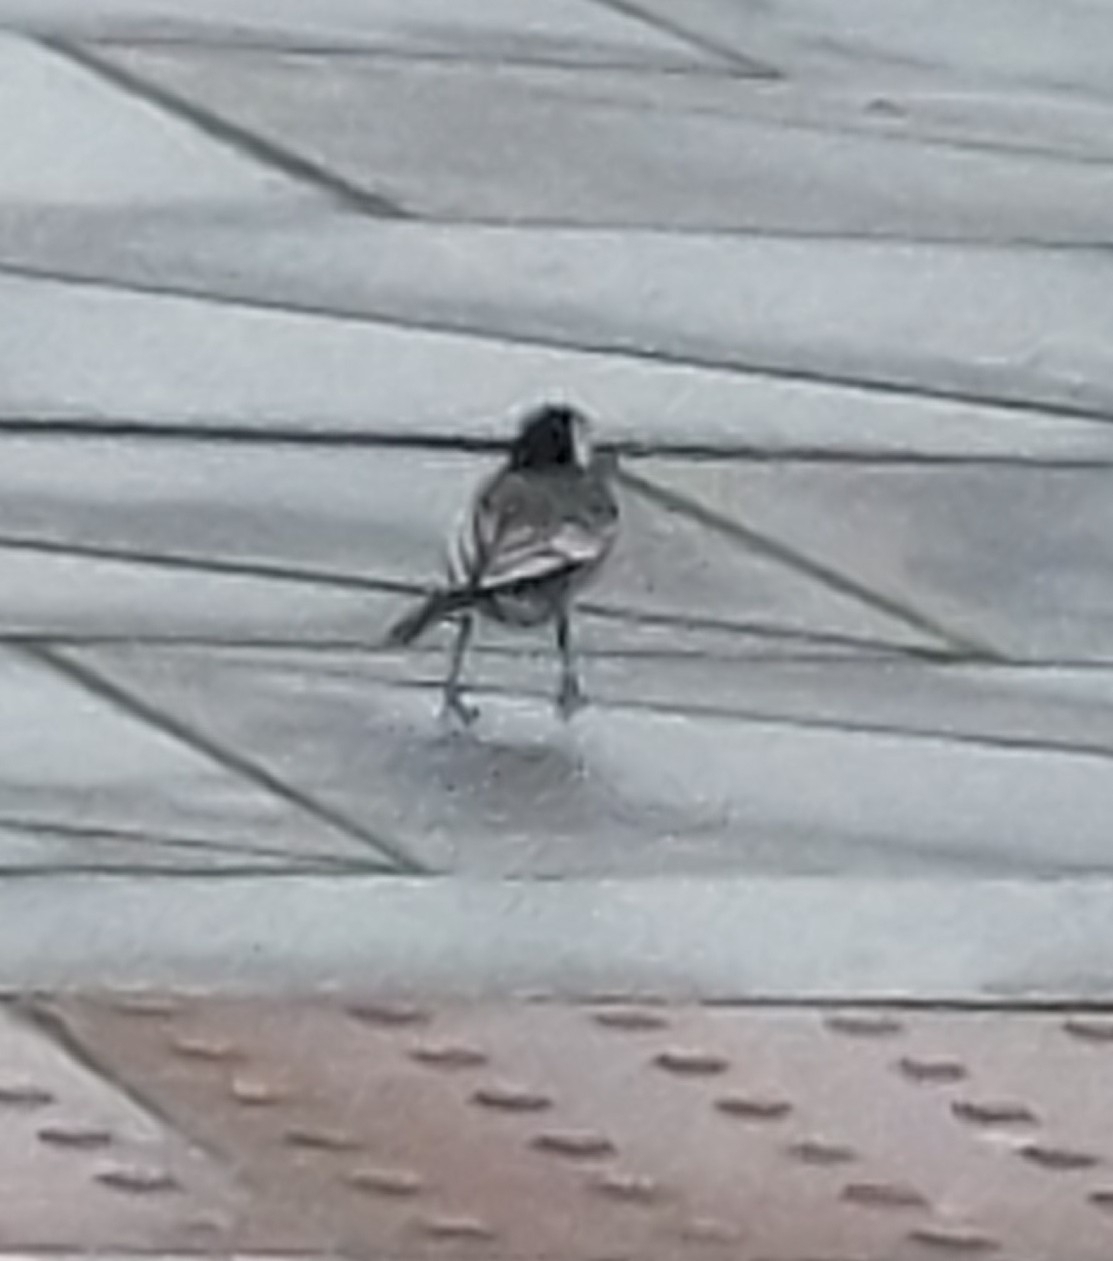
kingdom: Animalia
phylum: Chordata
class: Aves
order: Passeriformes
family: Motacillidae
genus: Motacilla
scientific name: Motacilla alba
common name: White wagtail
